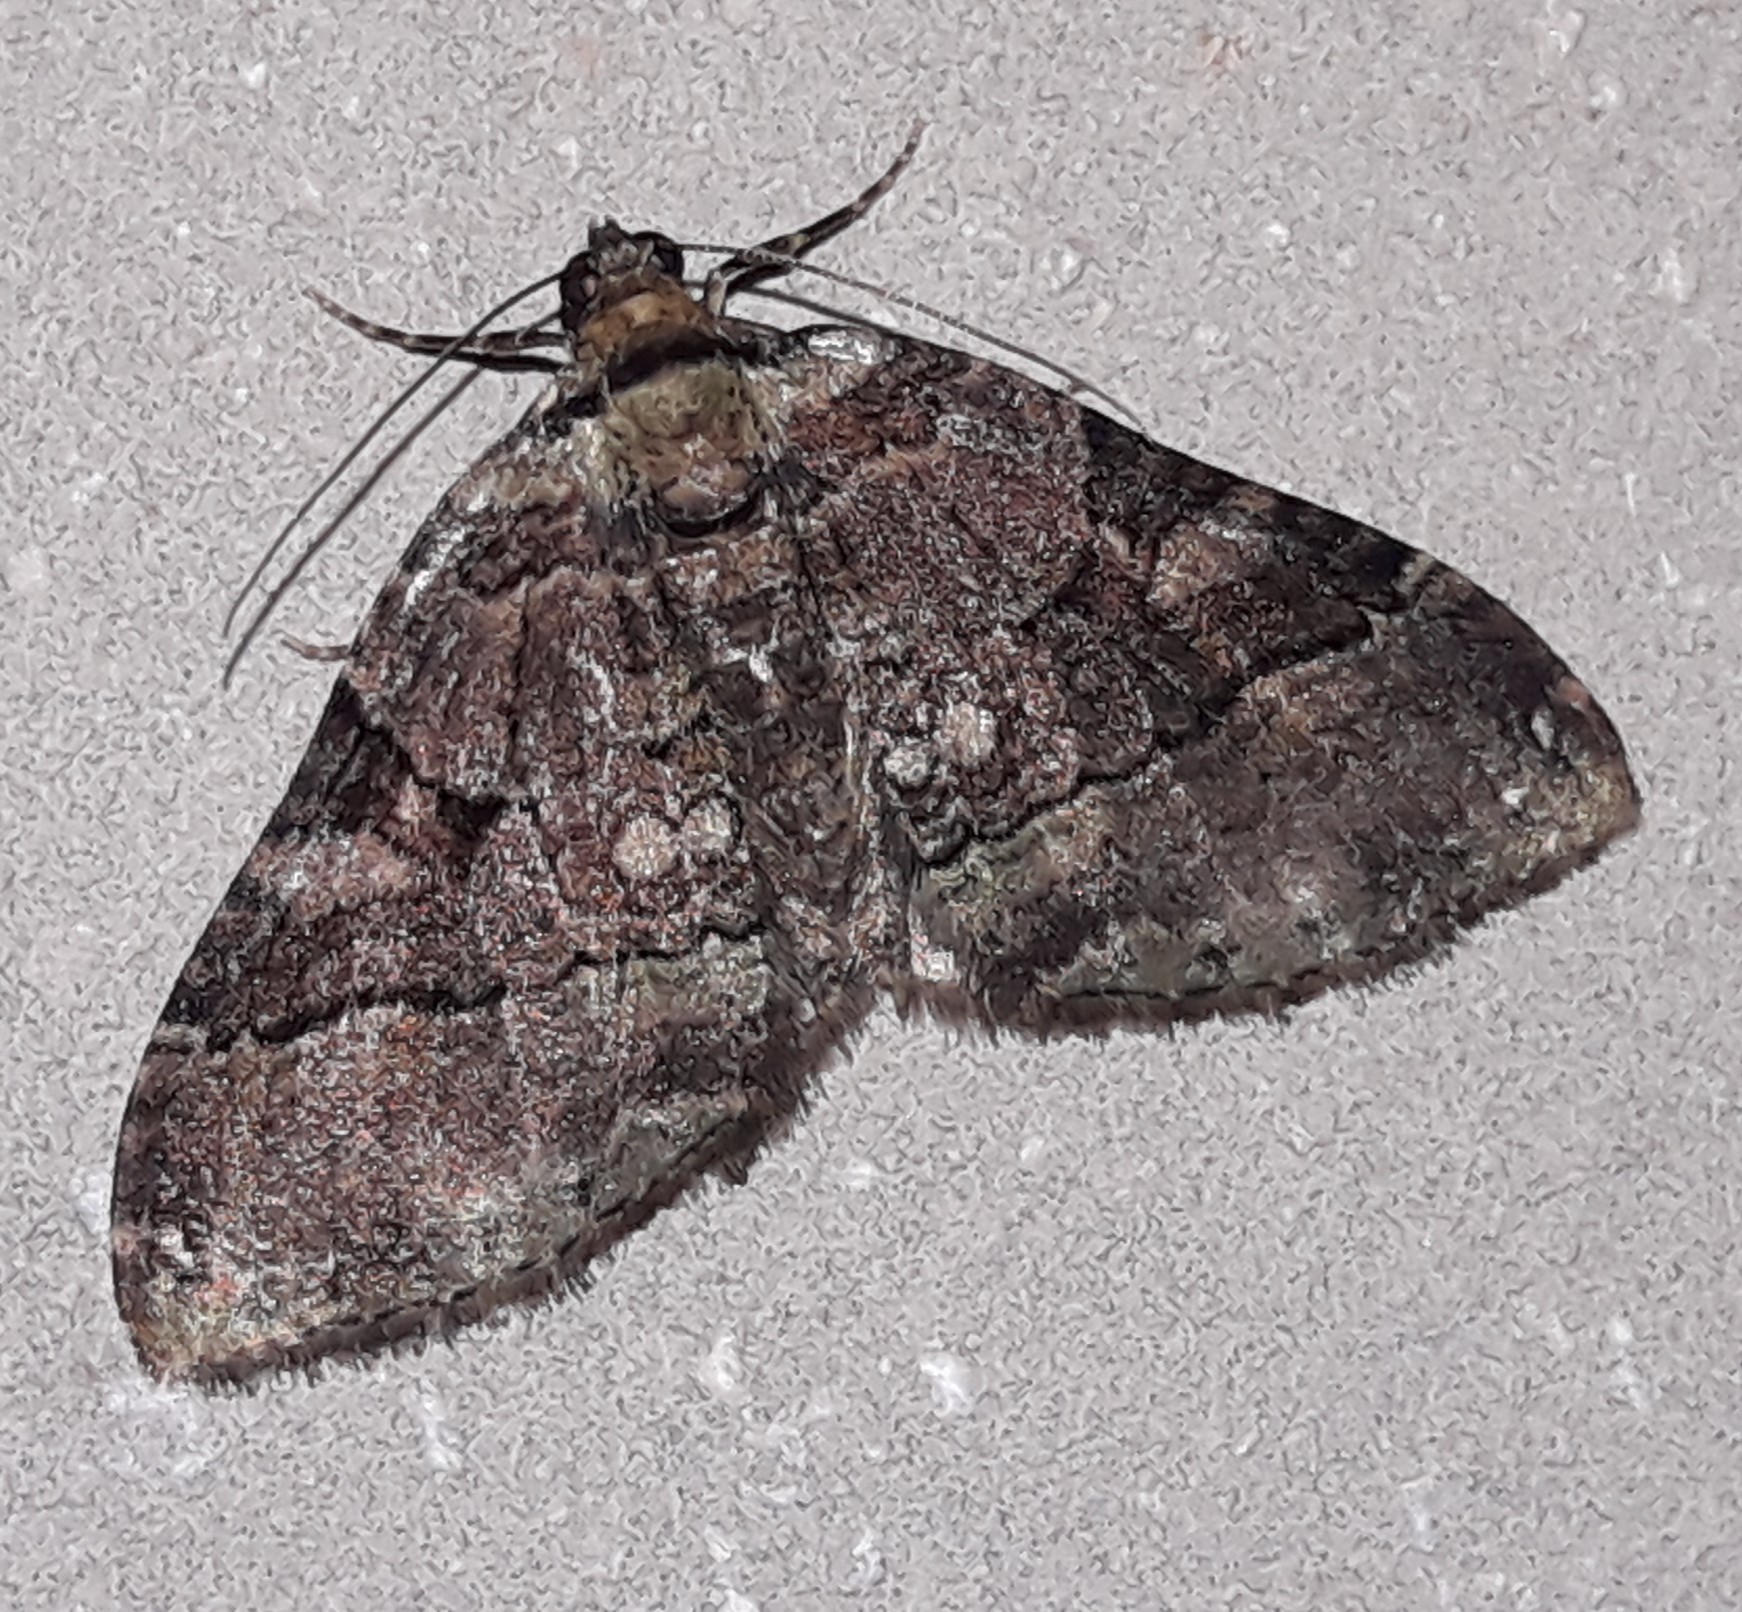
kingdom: Animalia
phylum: Arthropoda
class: Insecta
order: Lepidoptera
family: Geometridae
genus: Xanthorhoe
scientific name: Xanthorhoe zenasaria
